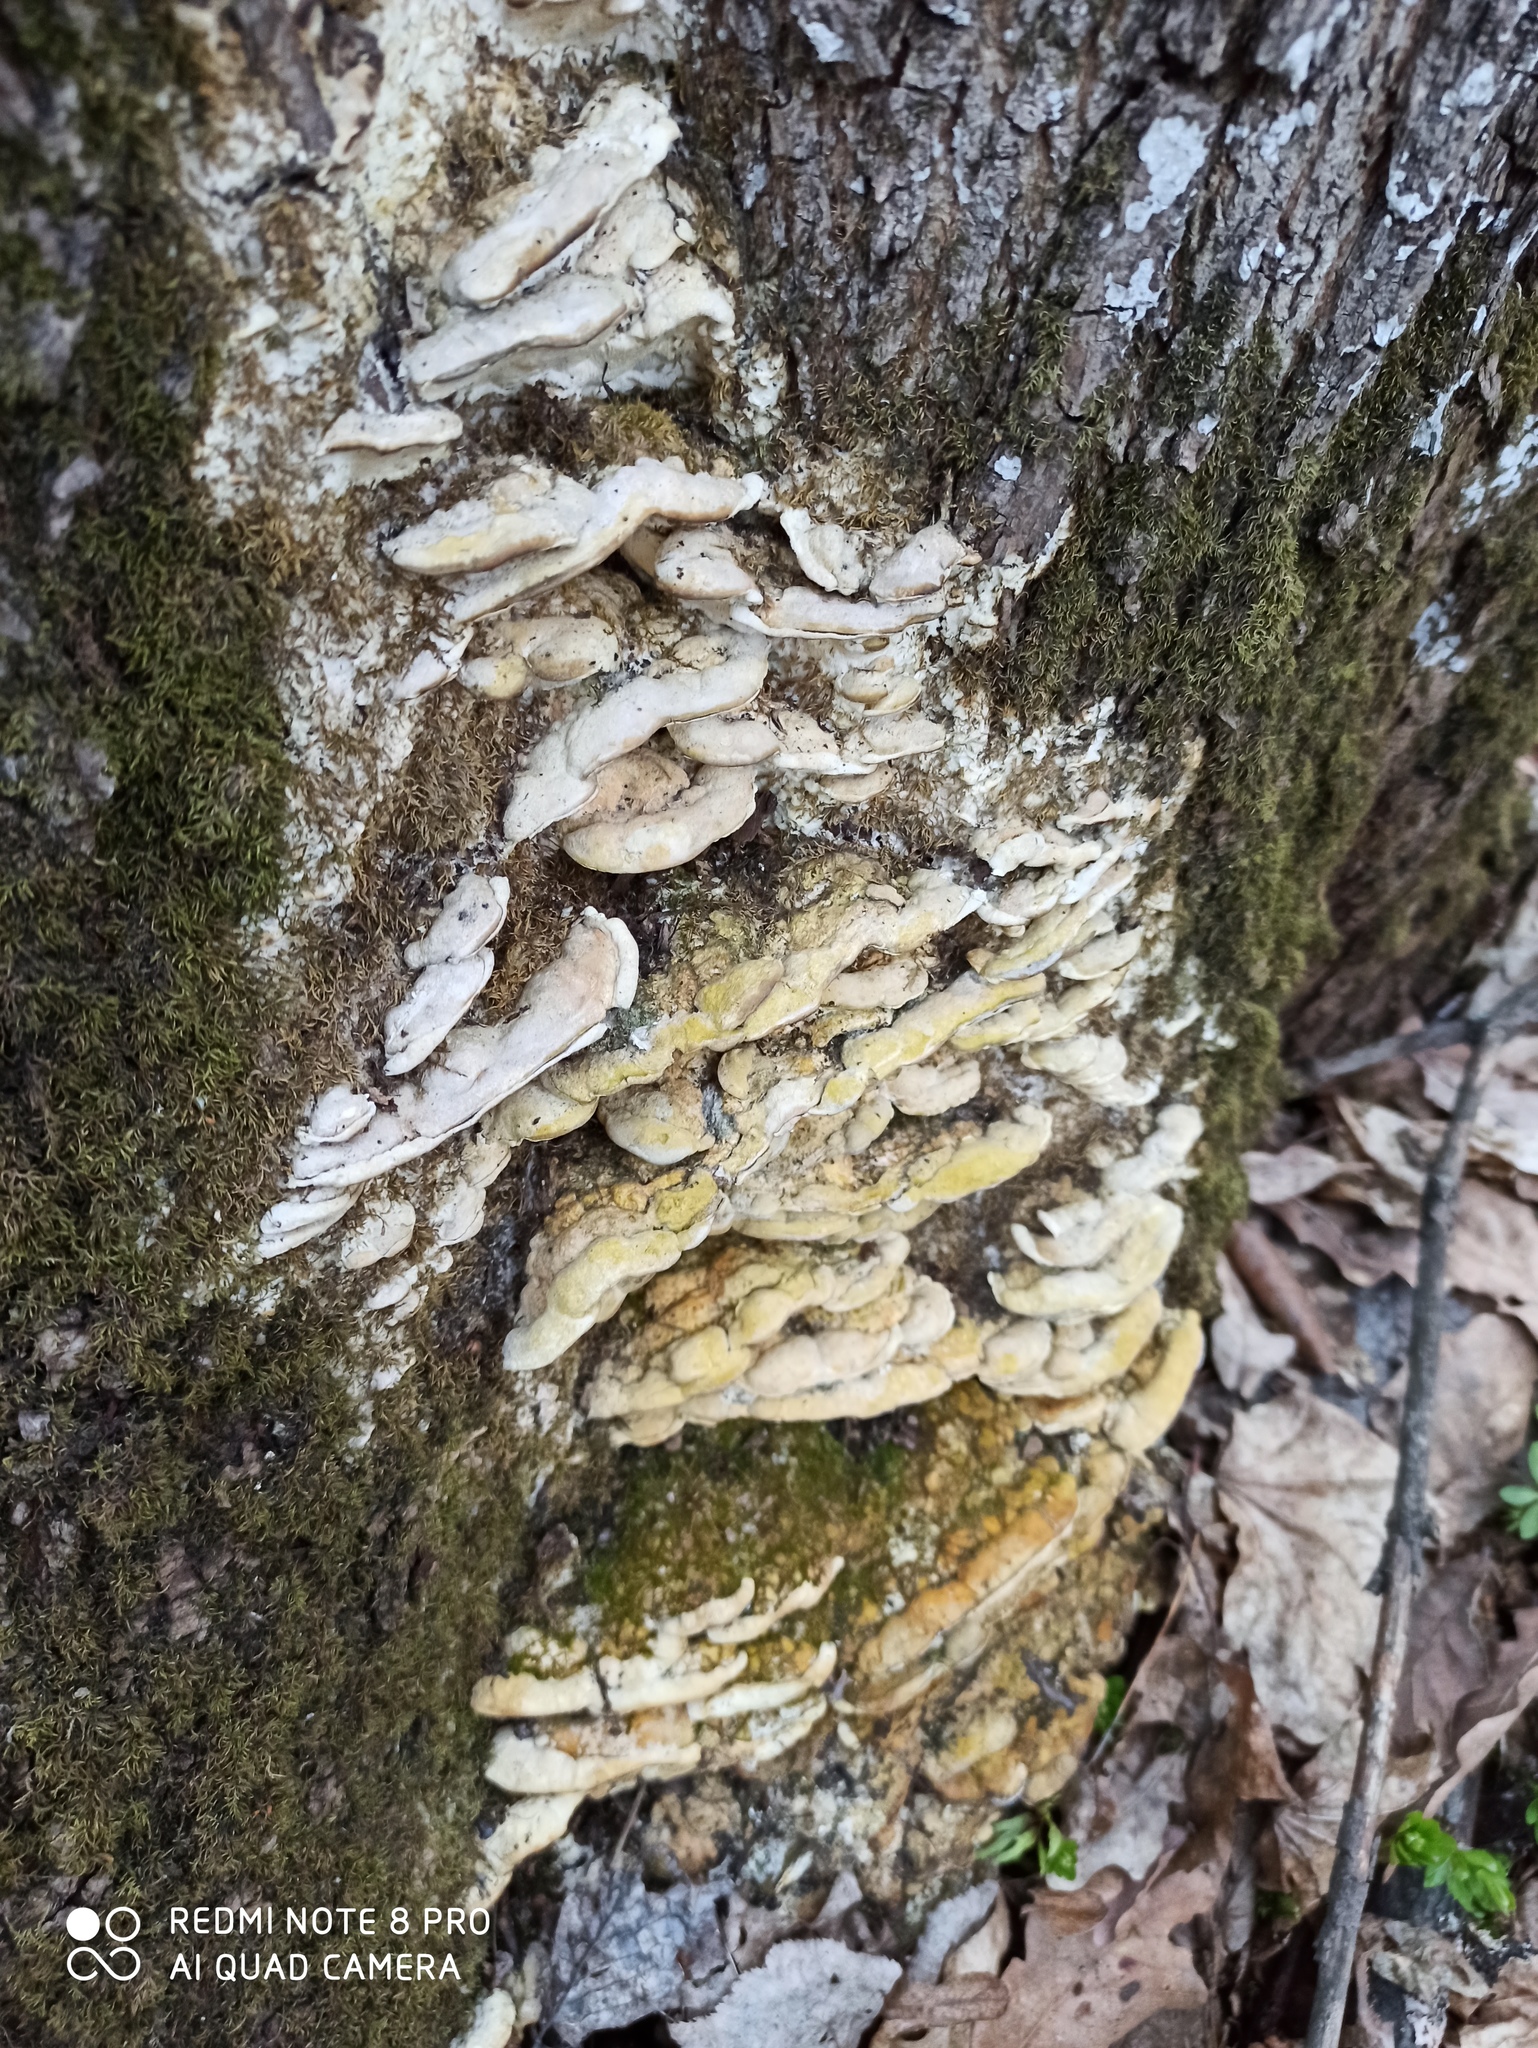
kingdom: Fungi
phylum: Basidiomycota
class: Agaricomycetes
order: Hymenochaetales
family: Oxyporaceae
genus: Oxyporus
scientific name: Oxyporus populinus
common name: Poplar bracket
